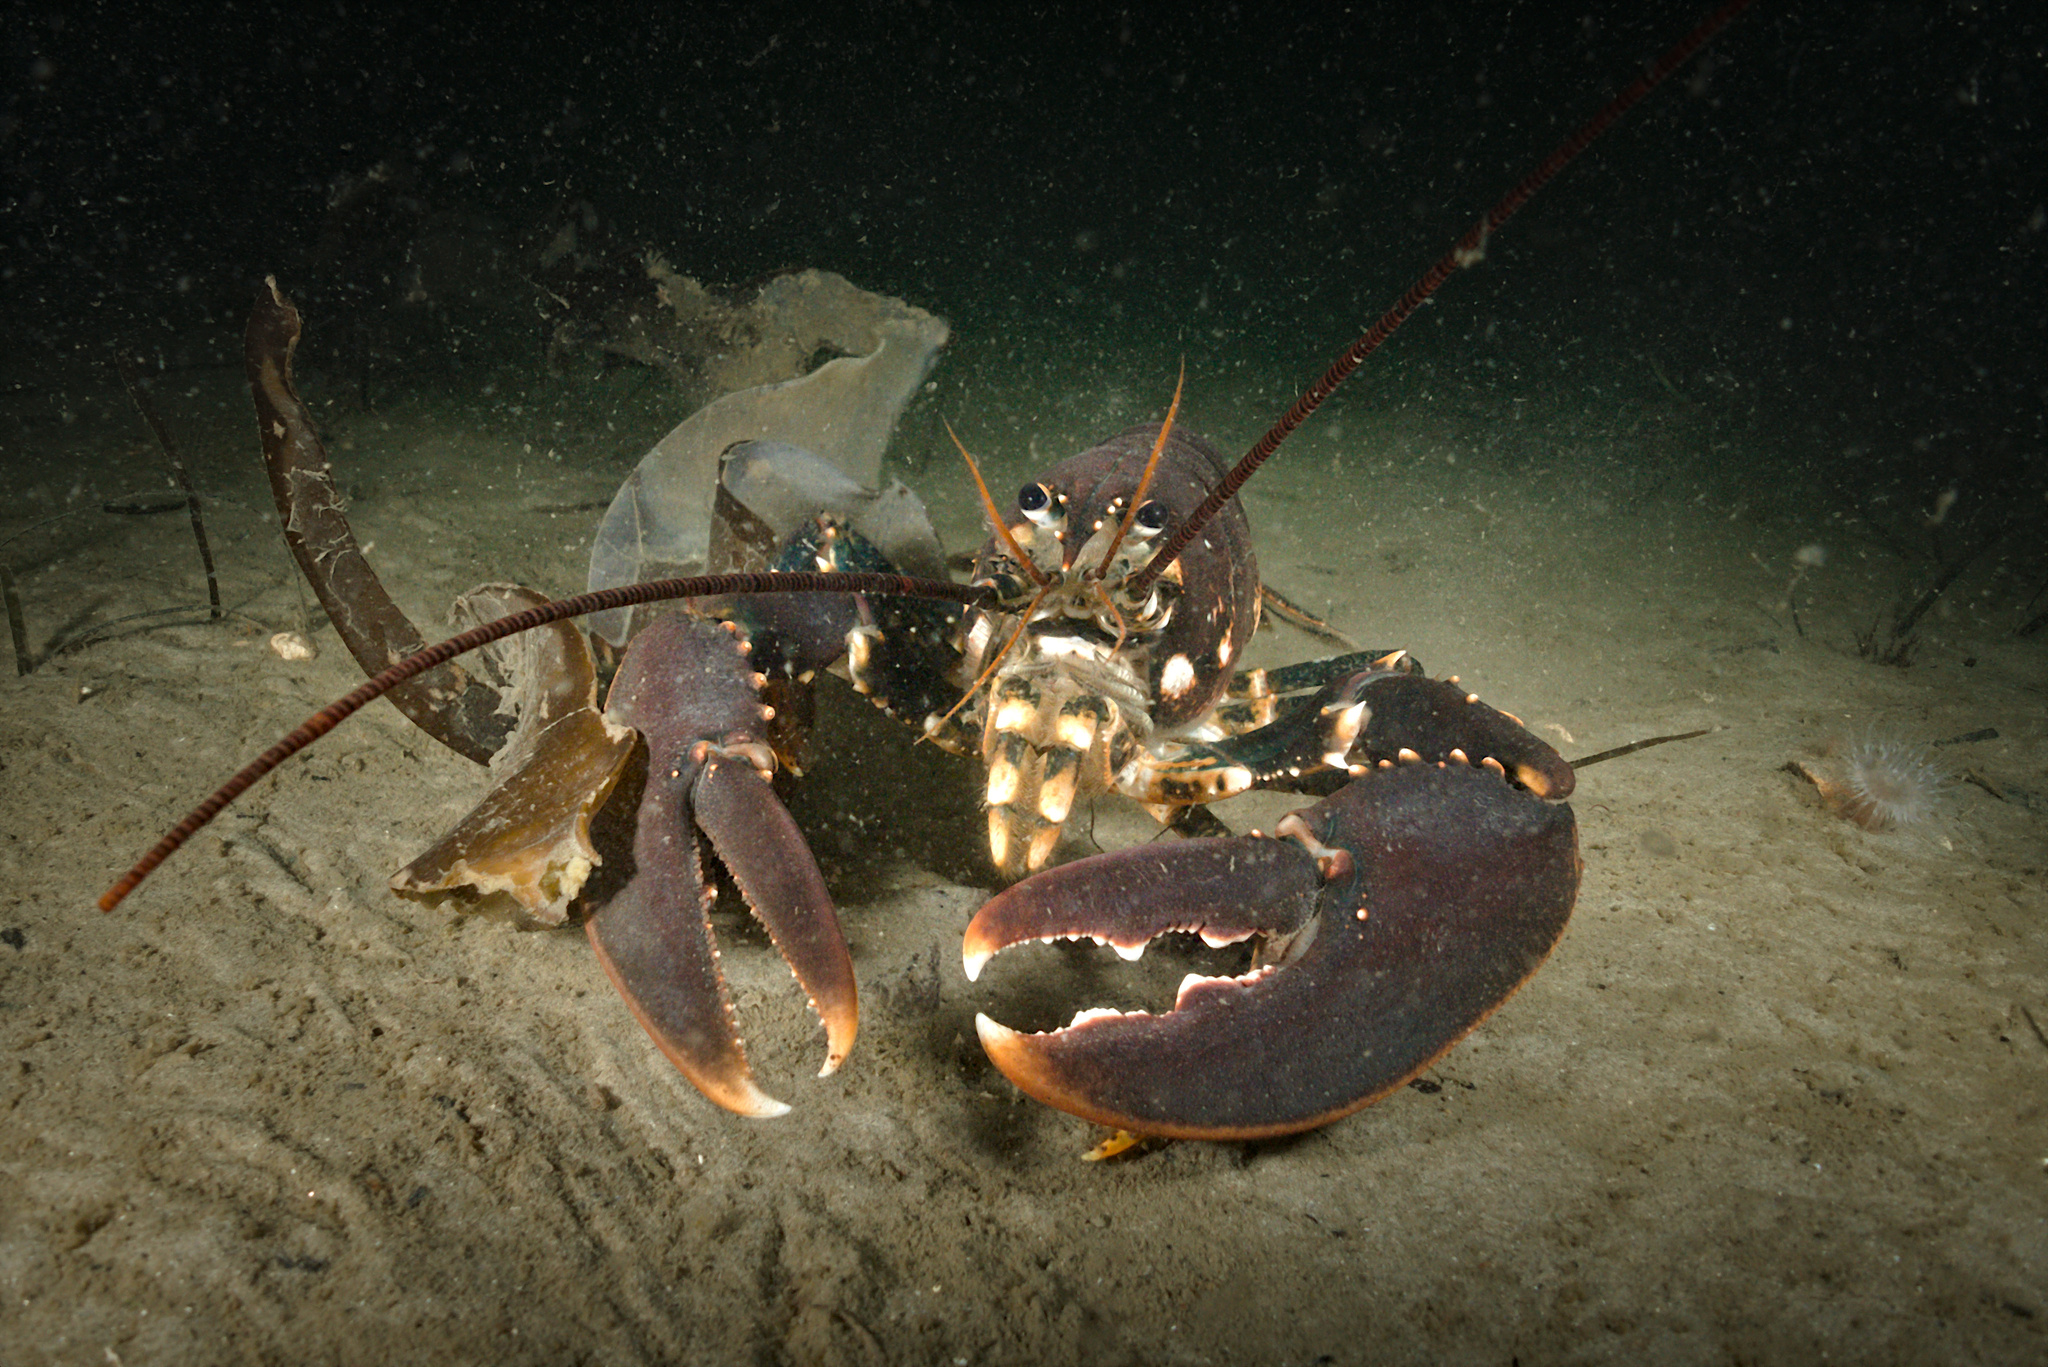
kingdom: Animalia
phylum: Arthropoda
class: Malacostraca
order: Decapoda
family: Nephropidae
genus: Homarus
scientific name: Homarus gammarus
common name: European lobster
